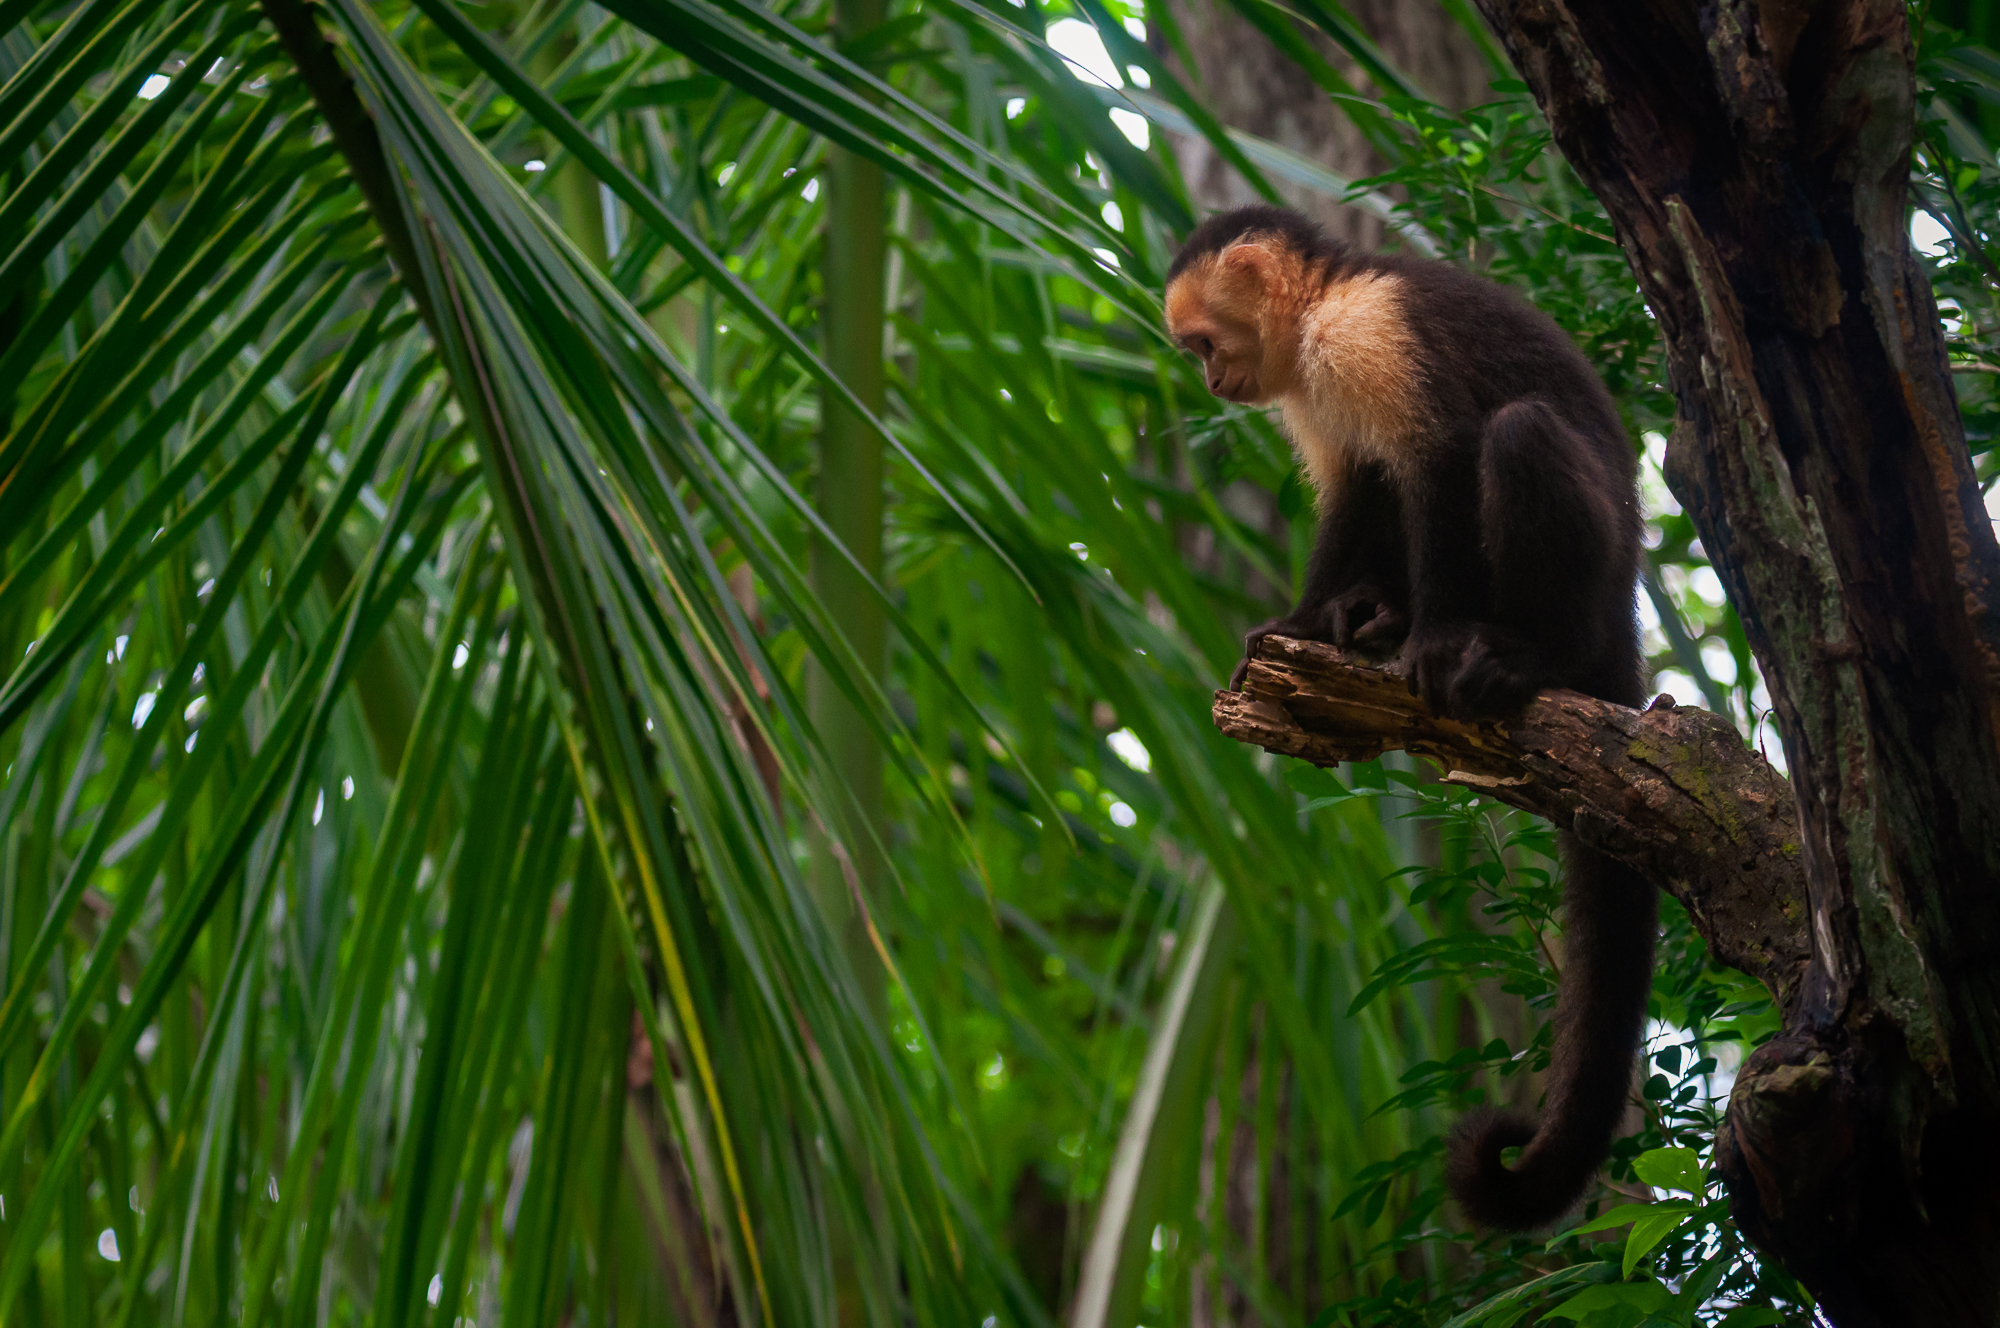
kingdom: Animalia
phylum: Chordata
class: Mammalia
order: Primates
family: Cebidae
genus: Cebus
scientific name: Cebus imitator
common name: Panamanian white-faced capuchin
